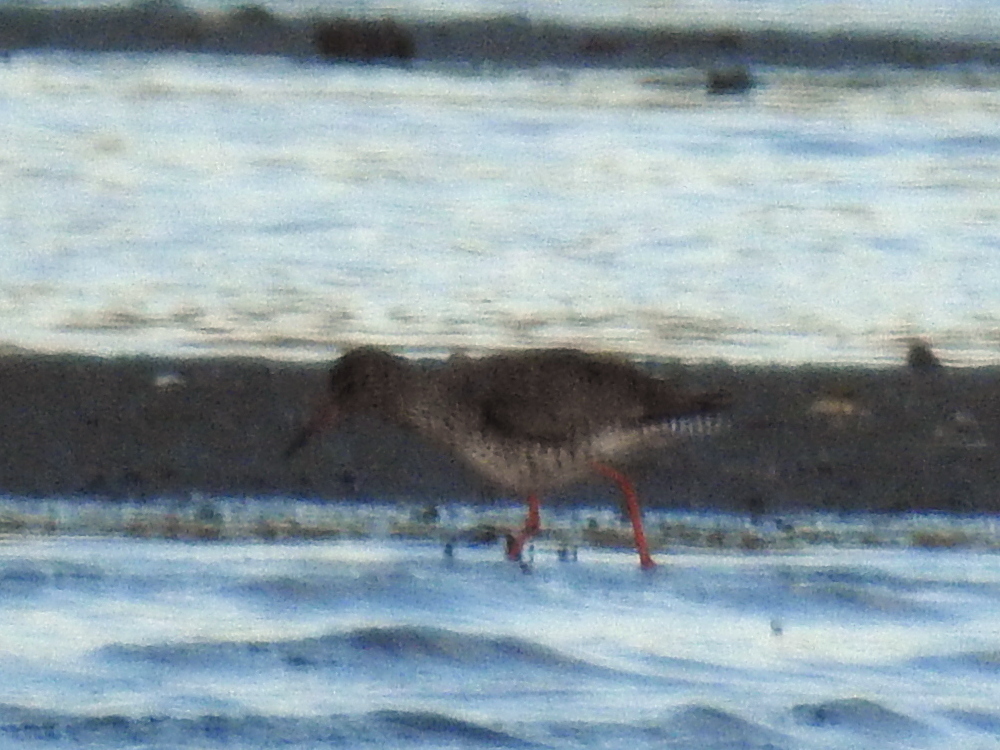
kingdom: Animalia
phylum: Chordata
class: Aves
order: Charadriiformes
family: Scolopacidae
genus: Tringa
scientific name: Tringa totanus
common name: Common redshank
